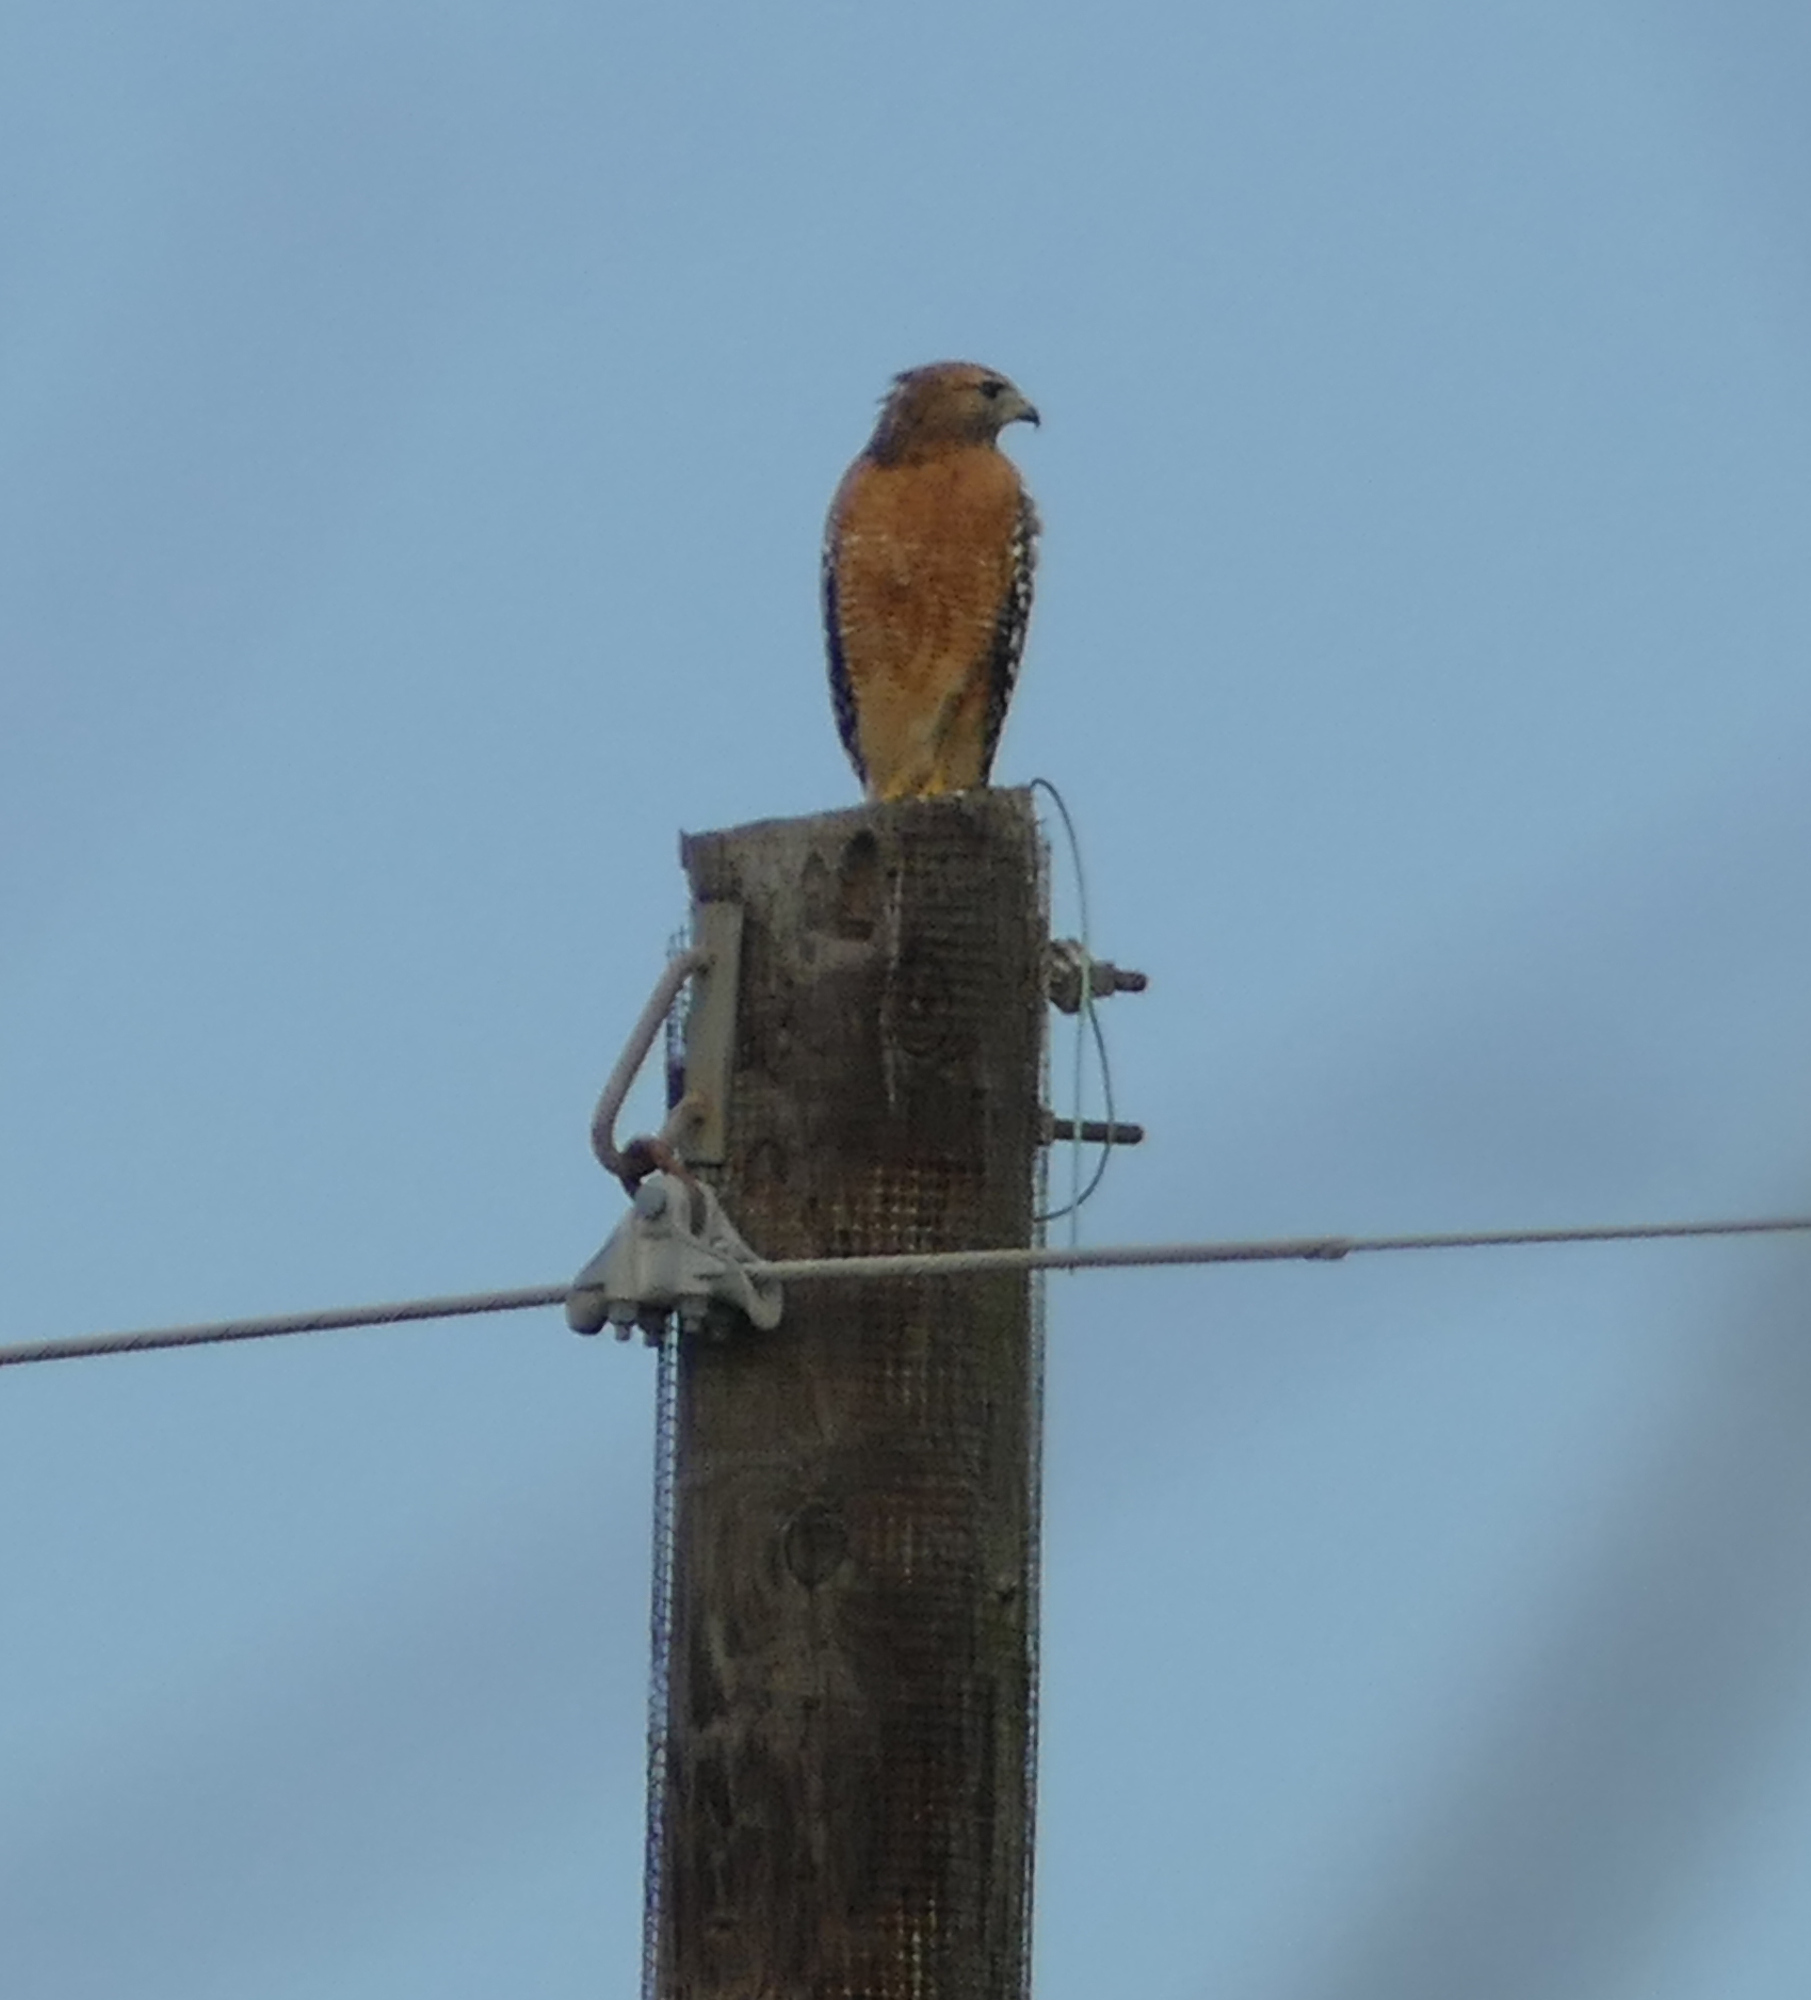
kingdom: Animalia
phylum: Chordata
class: Aves
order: Accipitriformes
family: Accipitridae
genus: Buteo
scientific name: Buteo lineatus
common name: Red-shouldered hawk
